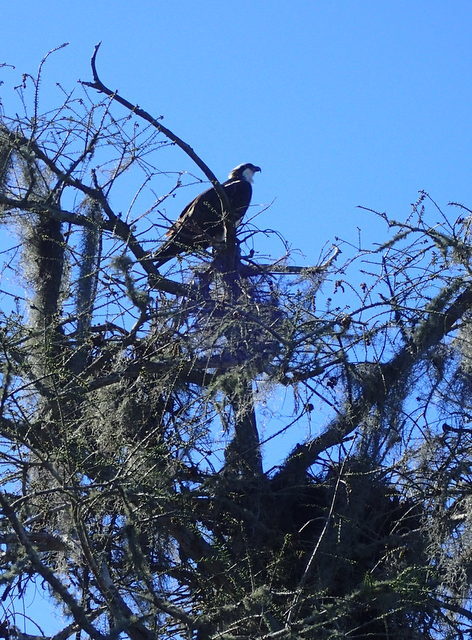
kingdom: Animalia
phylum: Chordata
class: Aves
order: Accipitriformes
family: Pandionidae
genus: Pandion
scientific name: Pandion haliaetus
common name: Osprey
